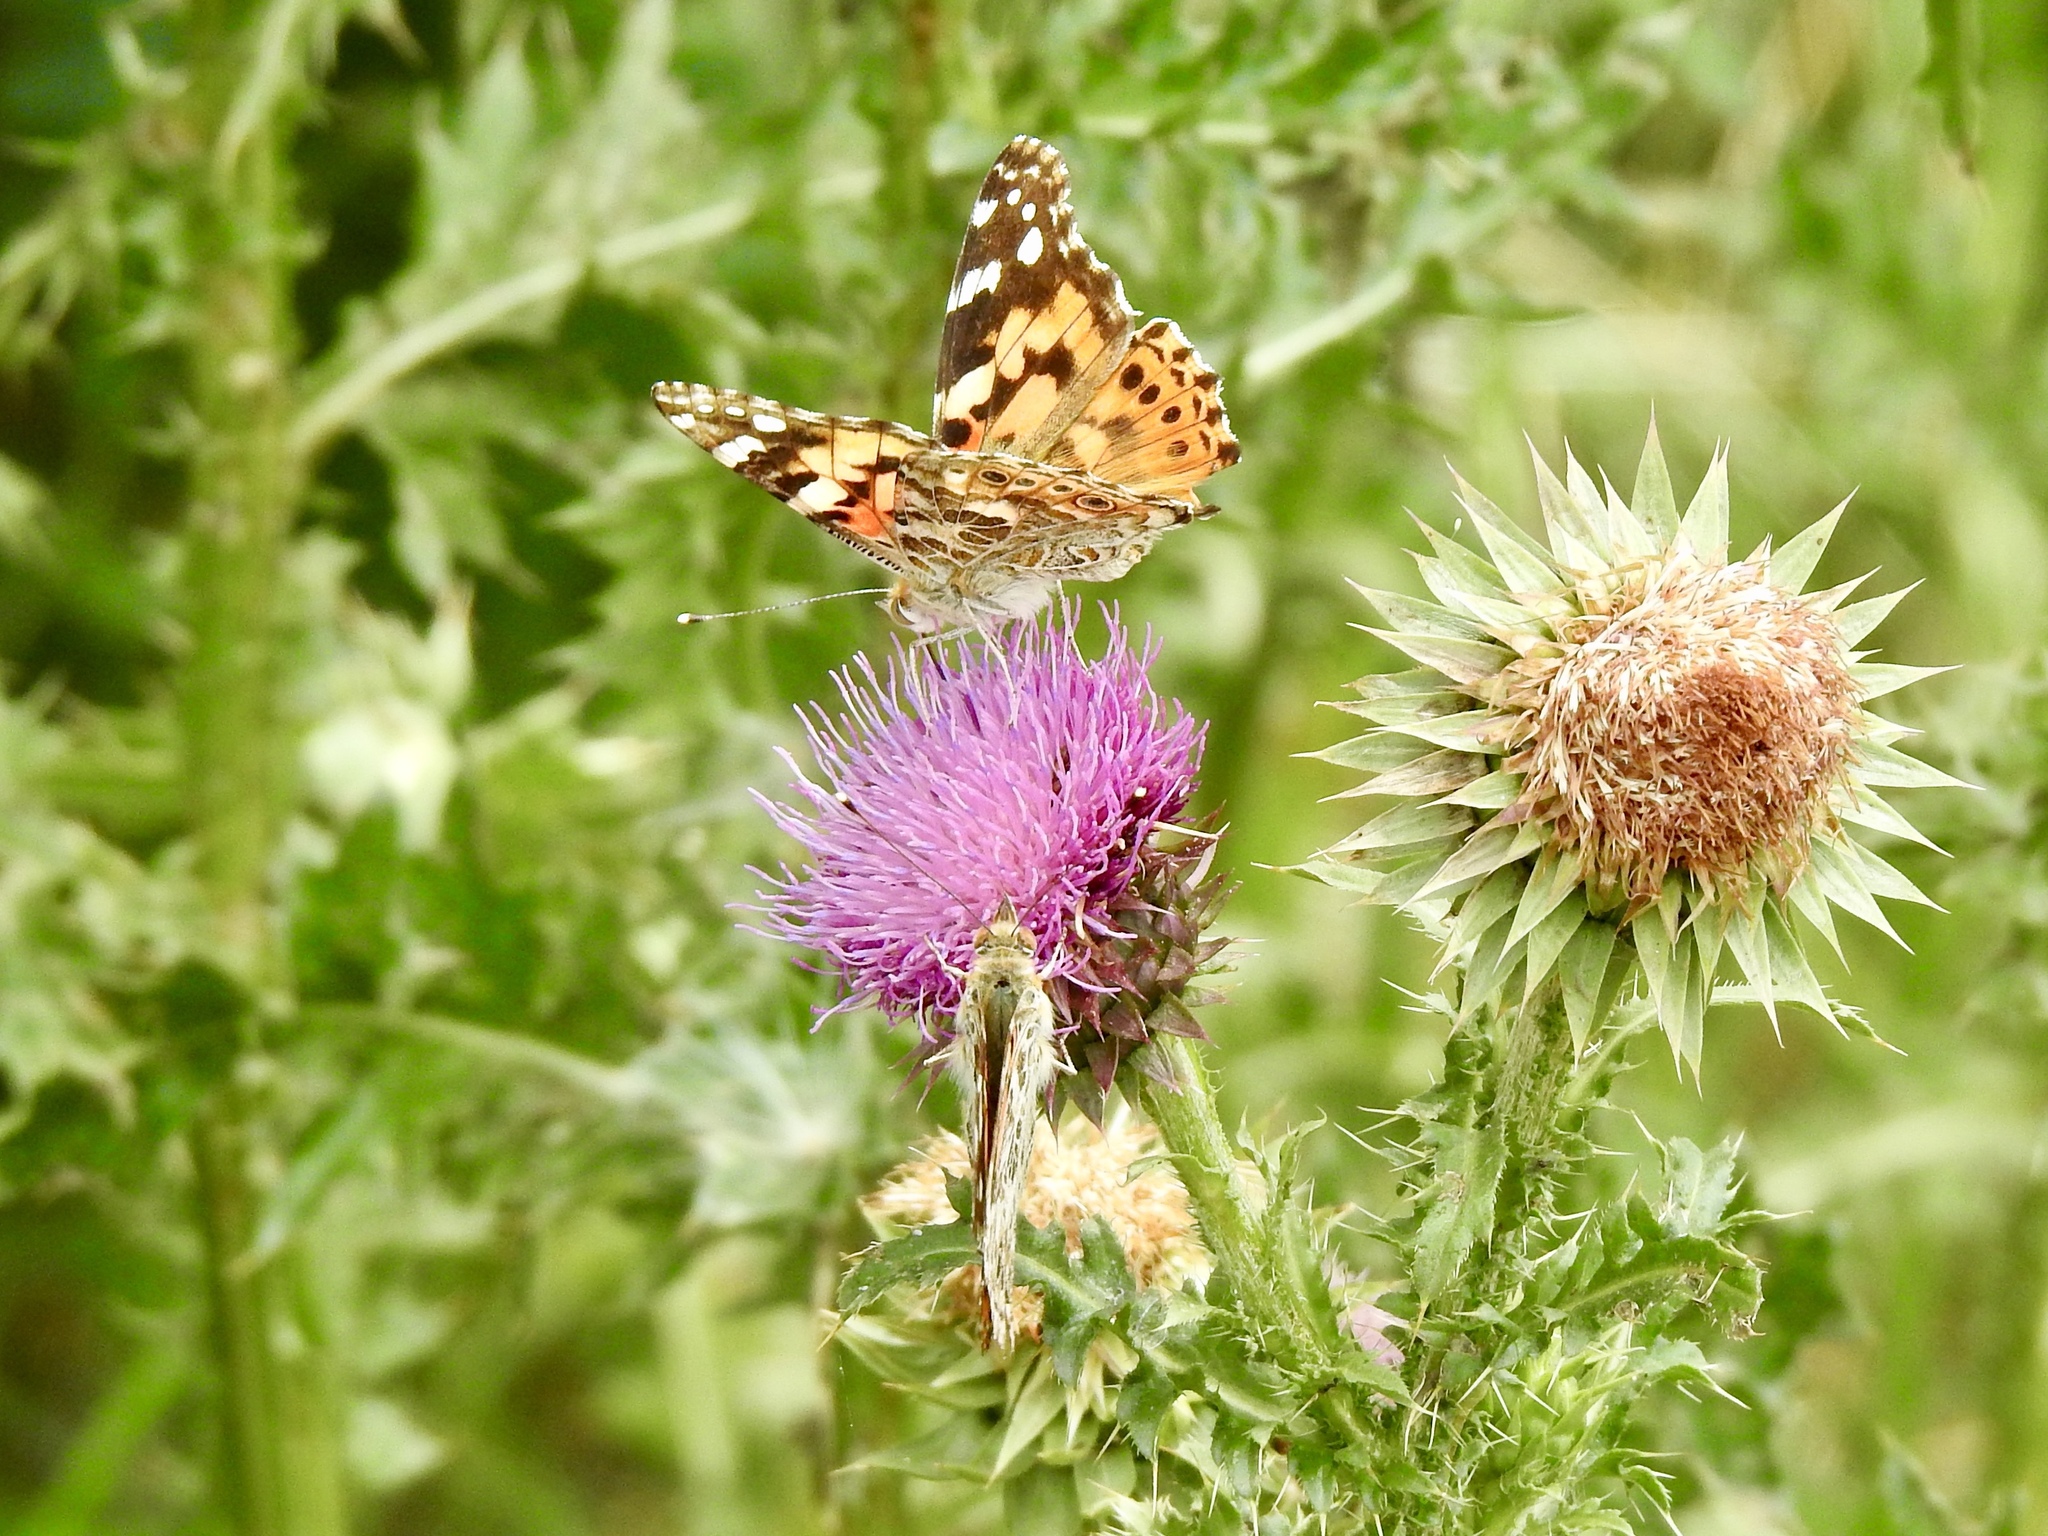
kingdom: Animalia
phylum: Arthropoda
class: Insecta
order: Lepidoptera
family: Nymphalidae
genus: Vanessa
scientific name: Vanessa cardui
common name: Painted lady
